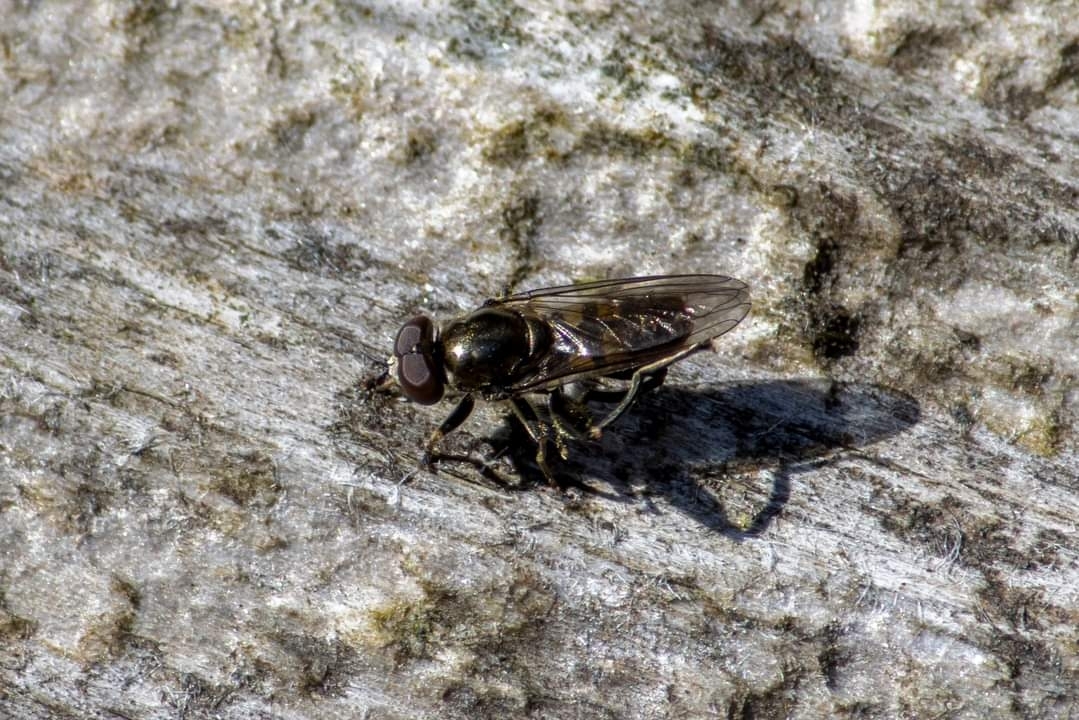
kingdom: Animalia
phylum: Arthropoda
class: Insecta
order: Diptera
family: Syrphidae
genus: Chalcosyrphus
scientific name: Chalcosyrphus nemorum
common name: Dusky-banded forest fly
